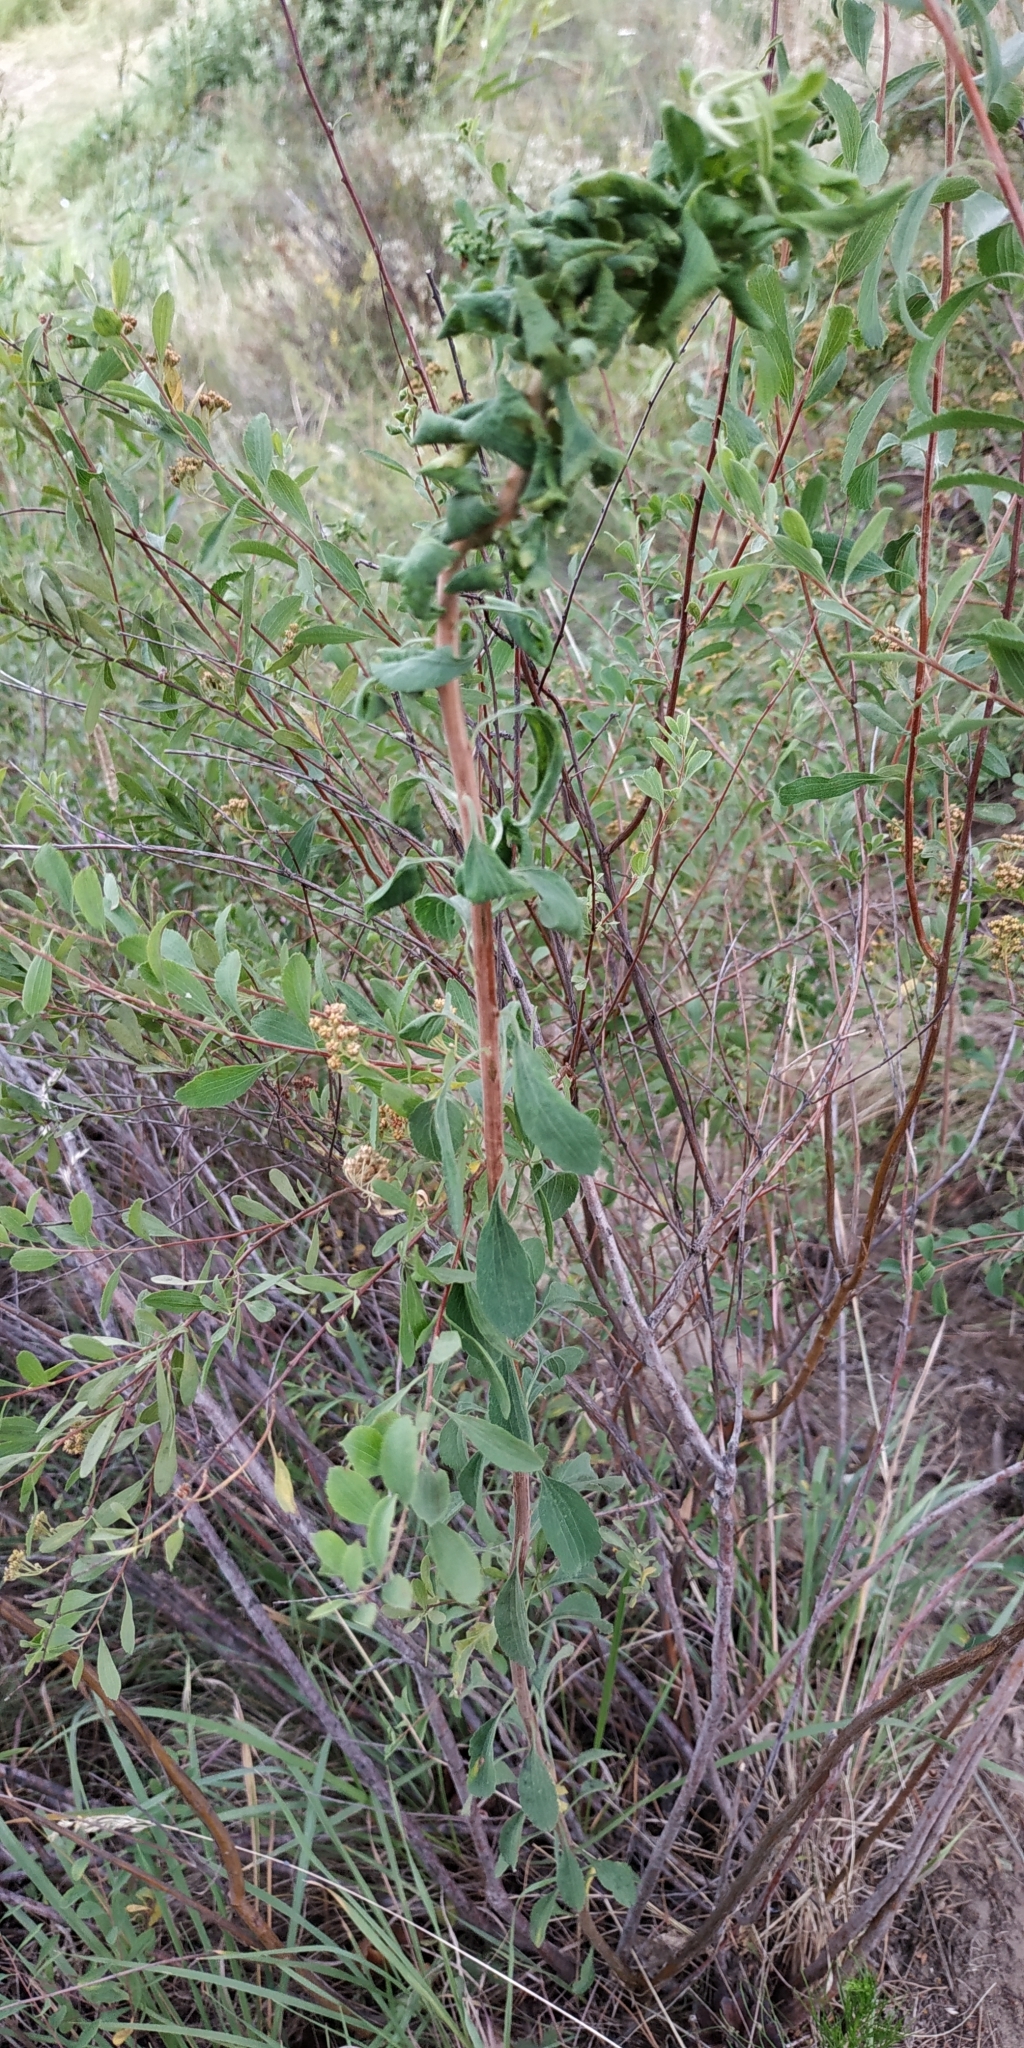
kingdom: Plantae
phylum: Tracheophyta
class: Magnoliopsida
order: Rosales
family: Rosaceae
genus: Spiraea
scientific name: Spiraea crenata
